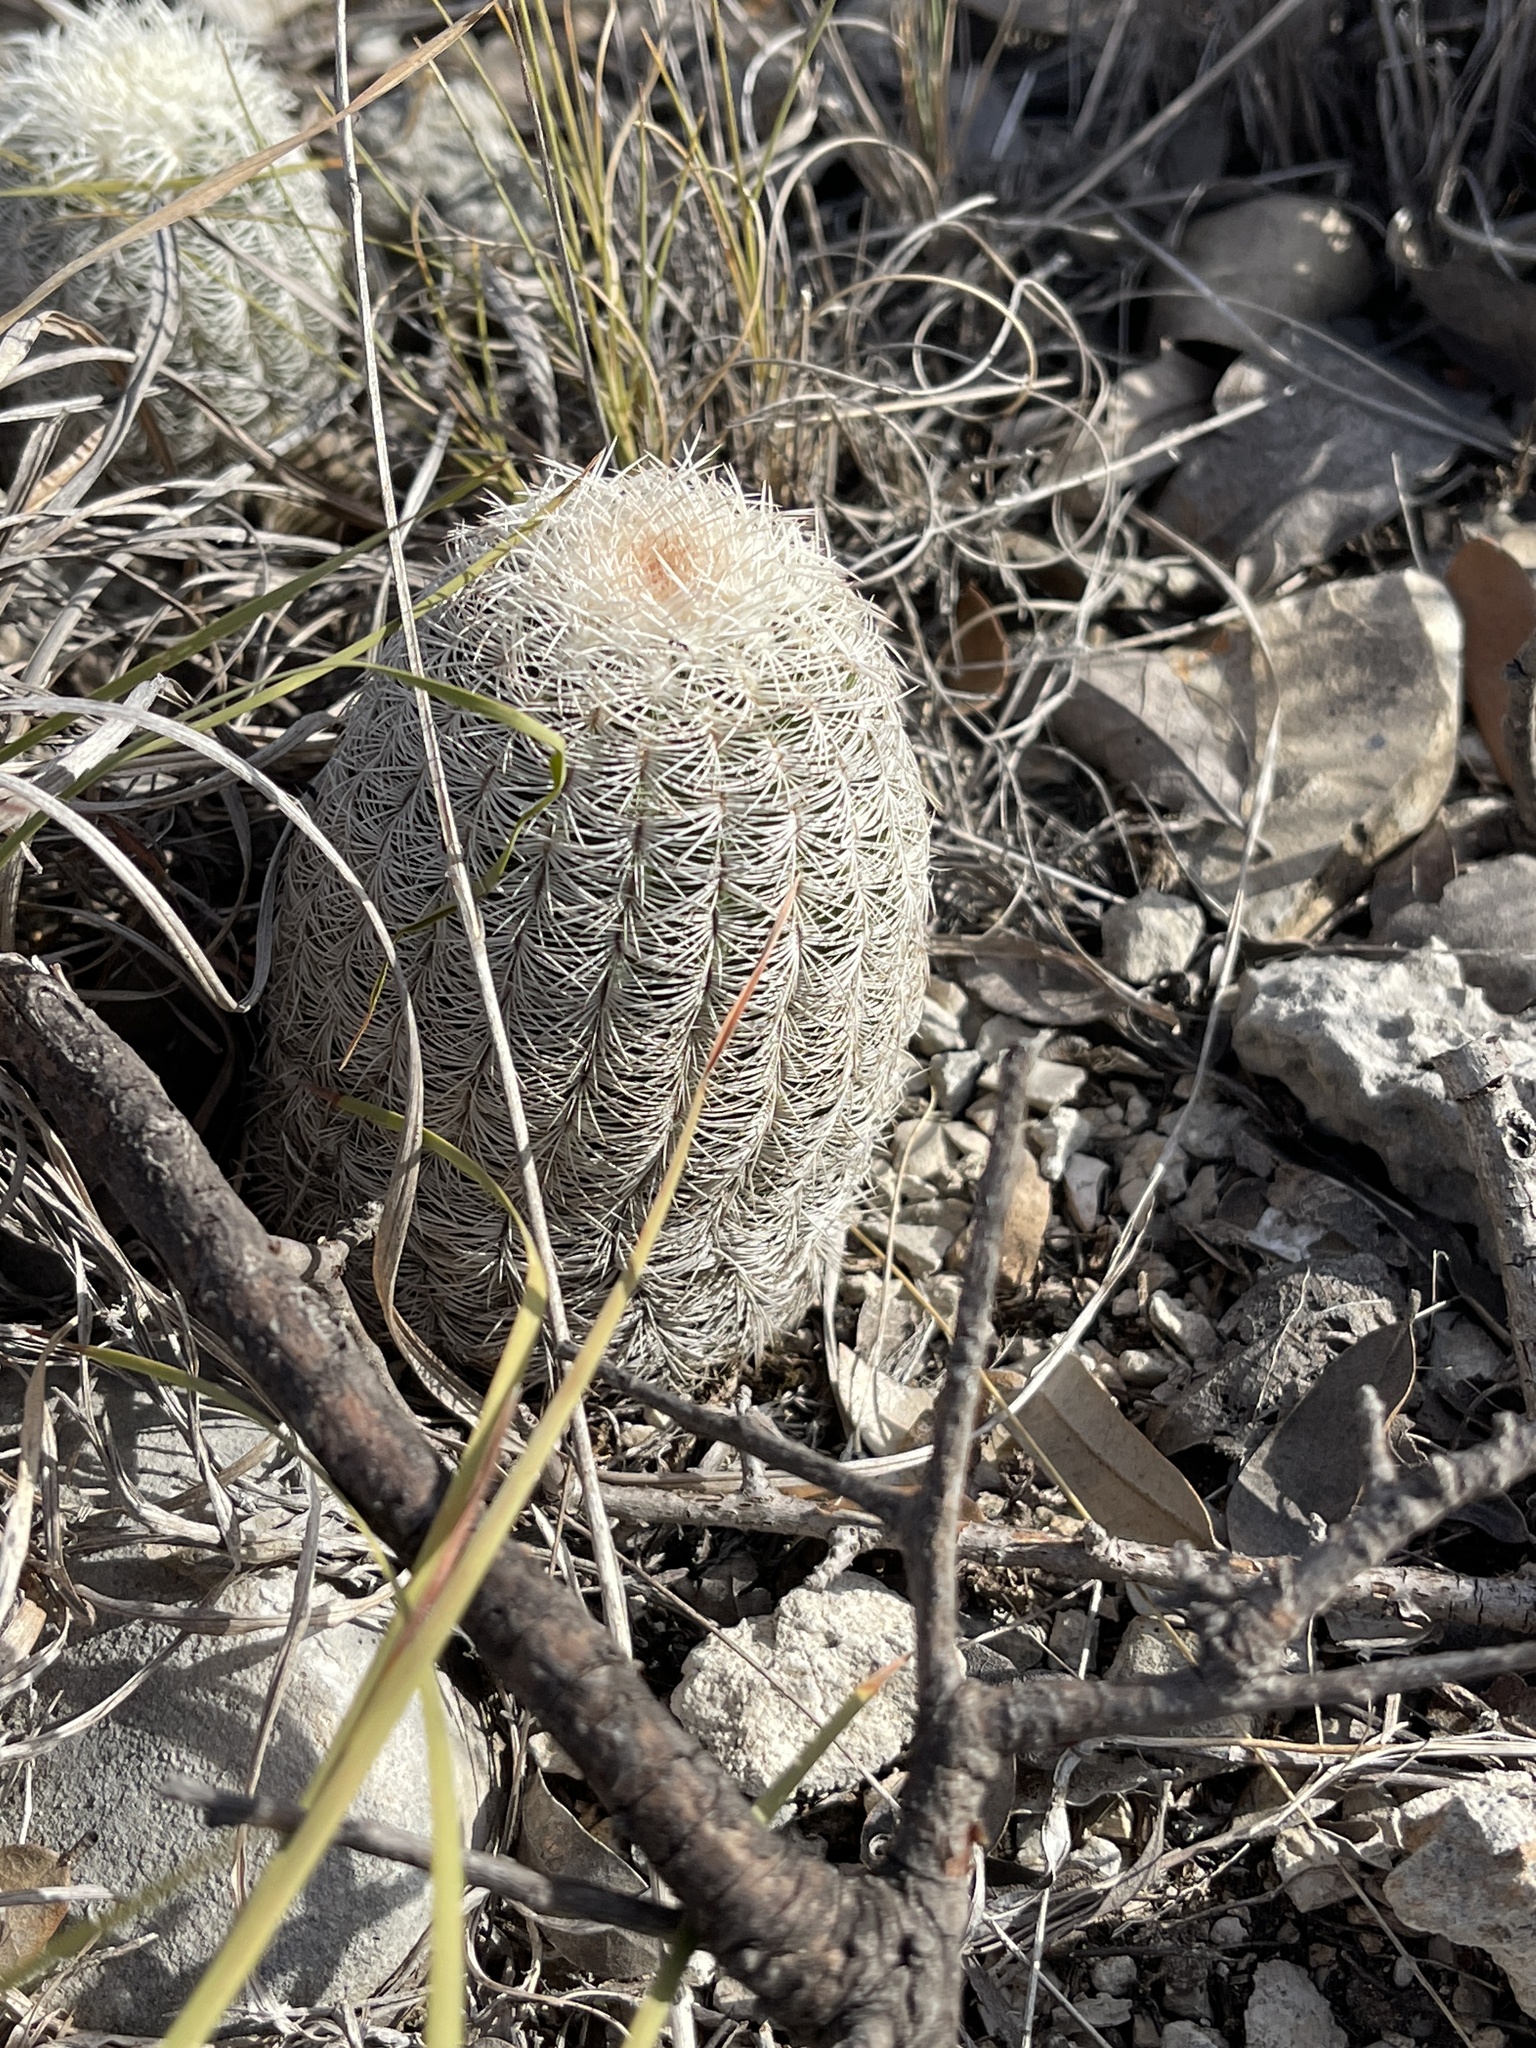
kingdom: Plantae
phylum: Tracheophyta
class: Magnoliopsida
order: Caryophyllales
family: Cactaceae
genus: Echinocereus
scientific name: Echinocereus reichenbachii
